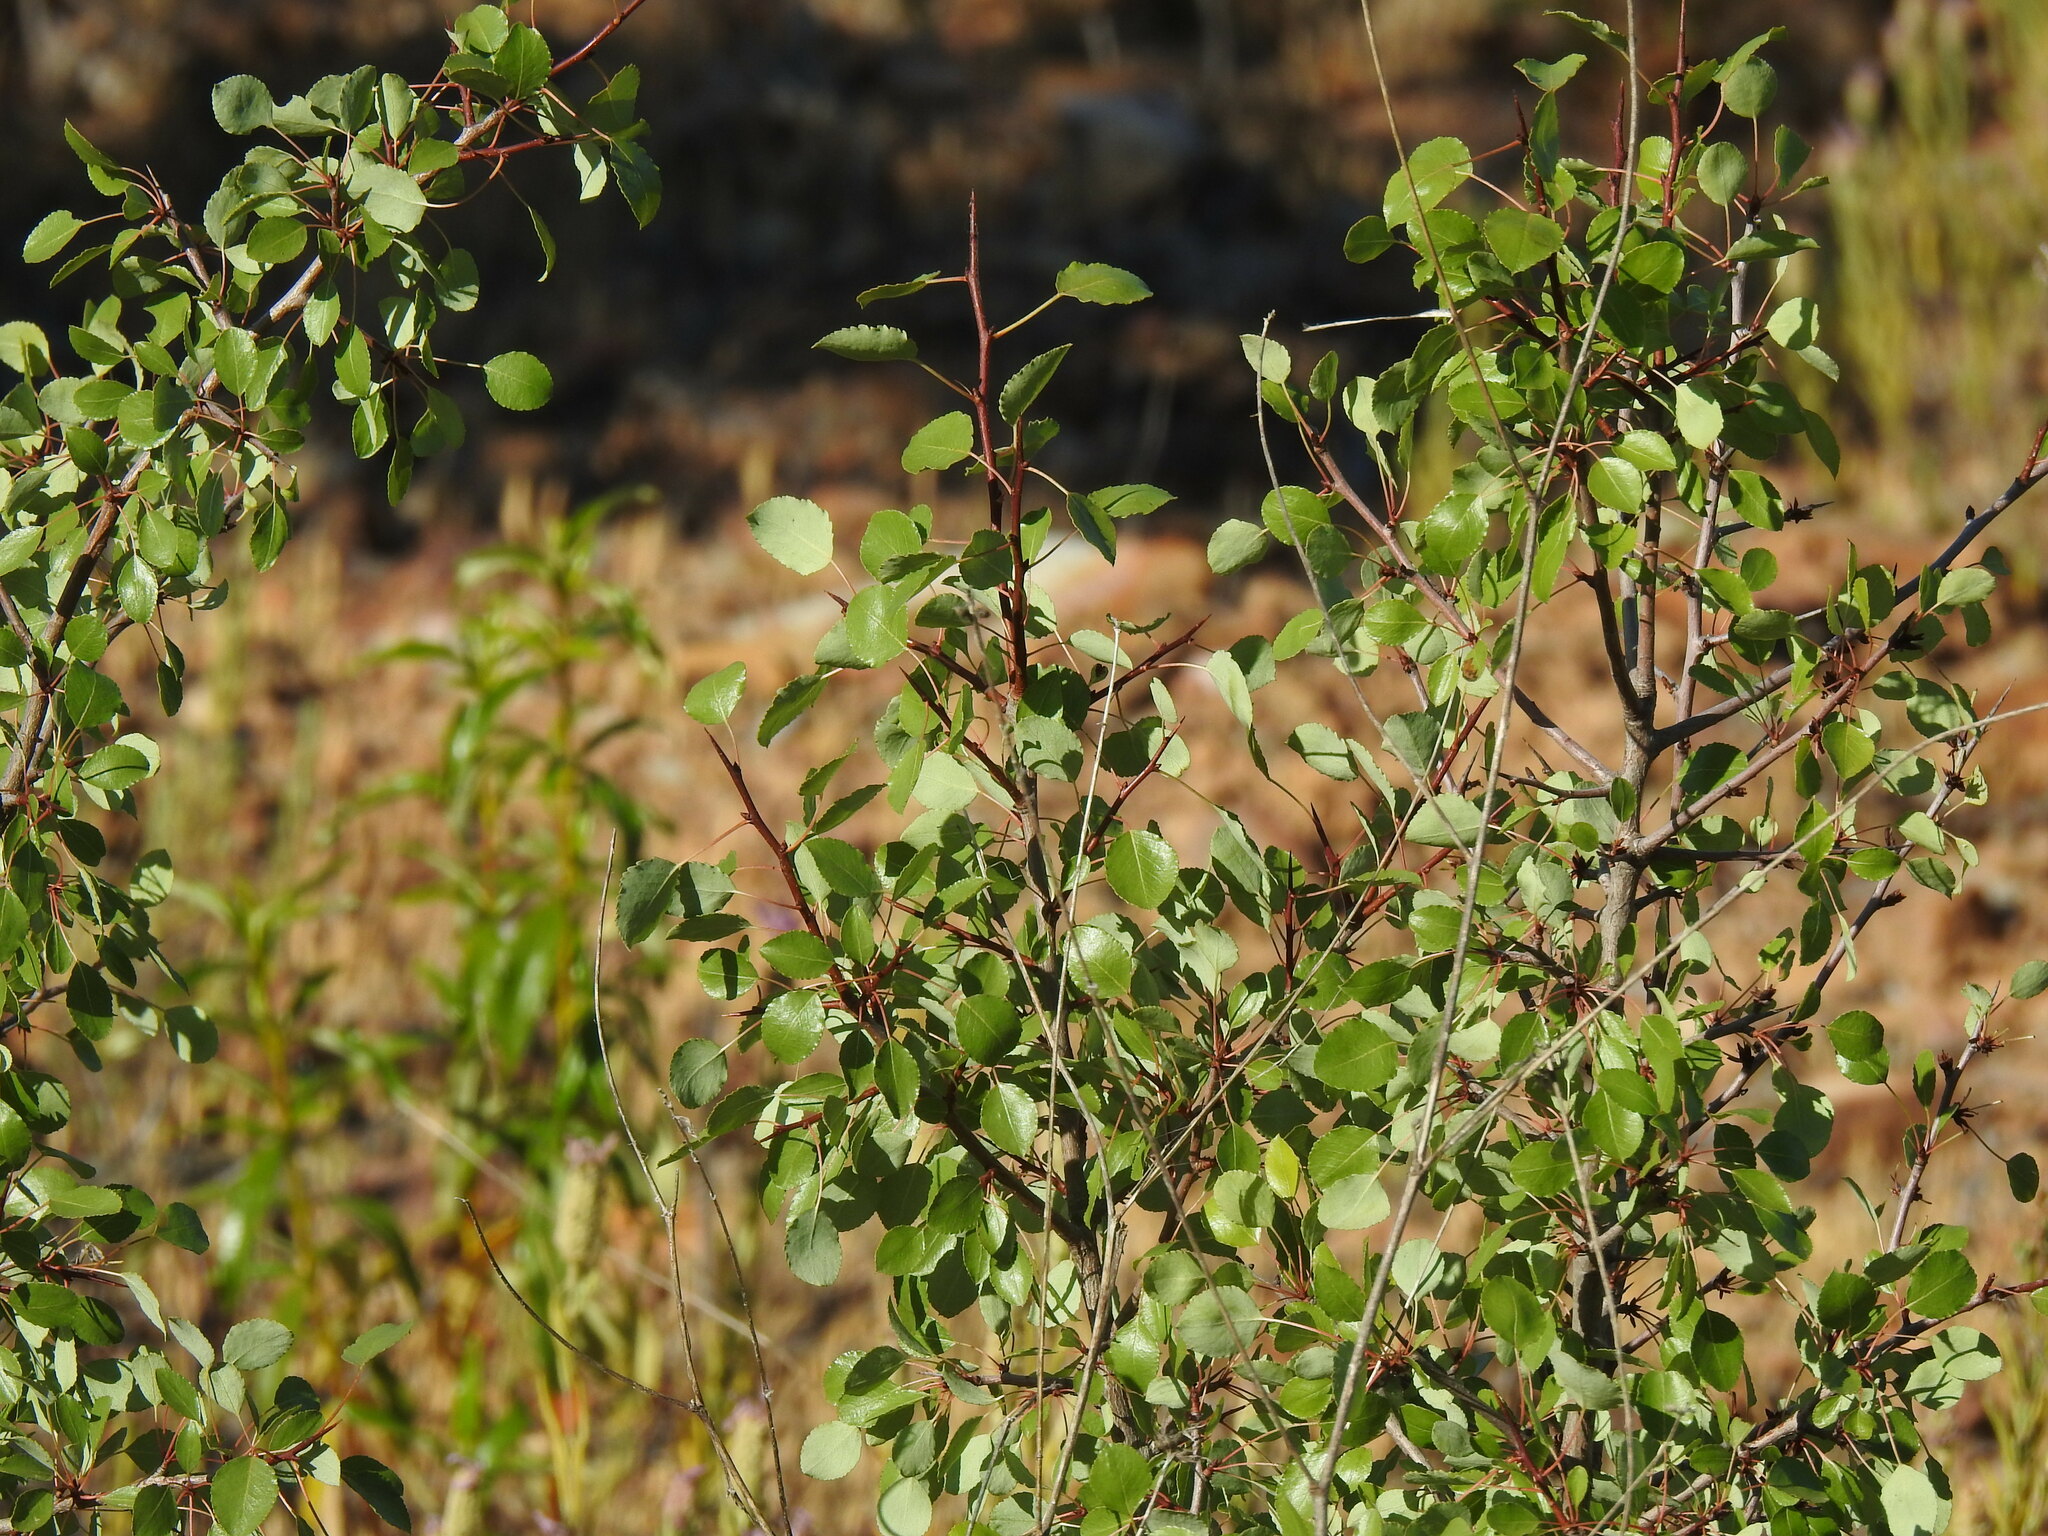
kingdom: Plantae
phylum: Tracheophyta
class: Magnoliopsida
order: Rosales
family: Rosaceae
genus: Pyrus
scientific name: Pyrus bourgaeana
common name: Iberian pear
